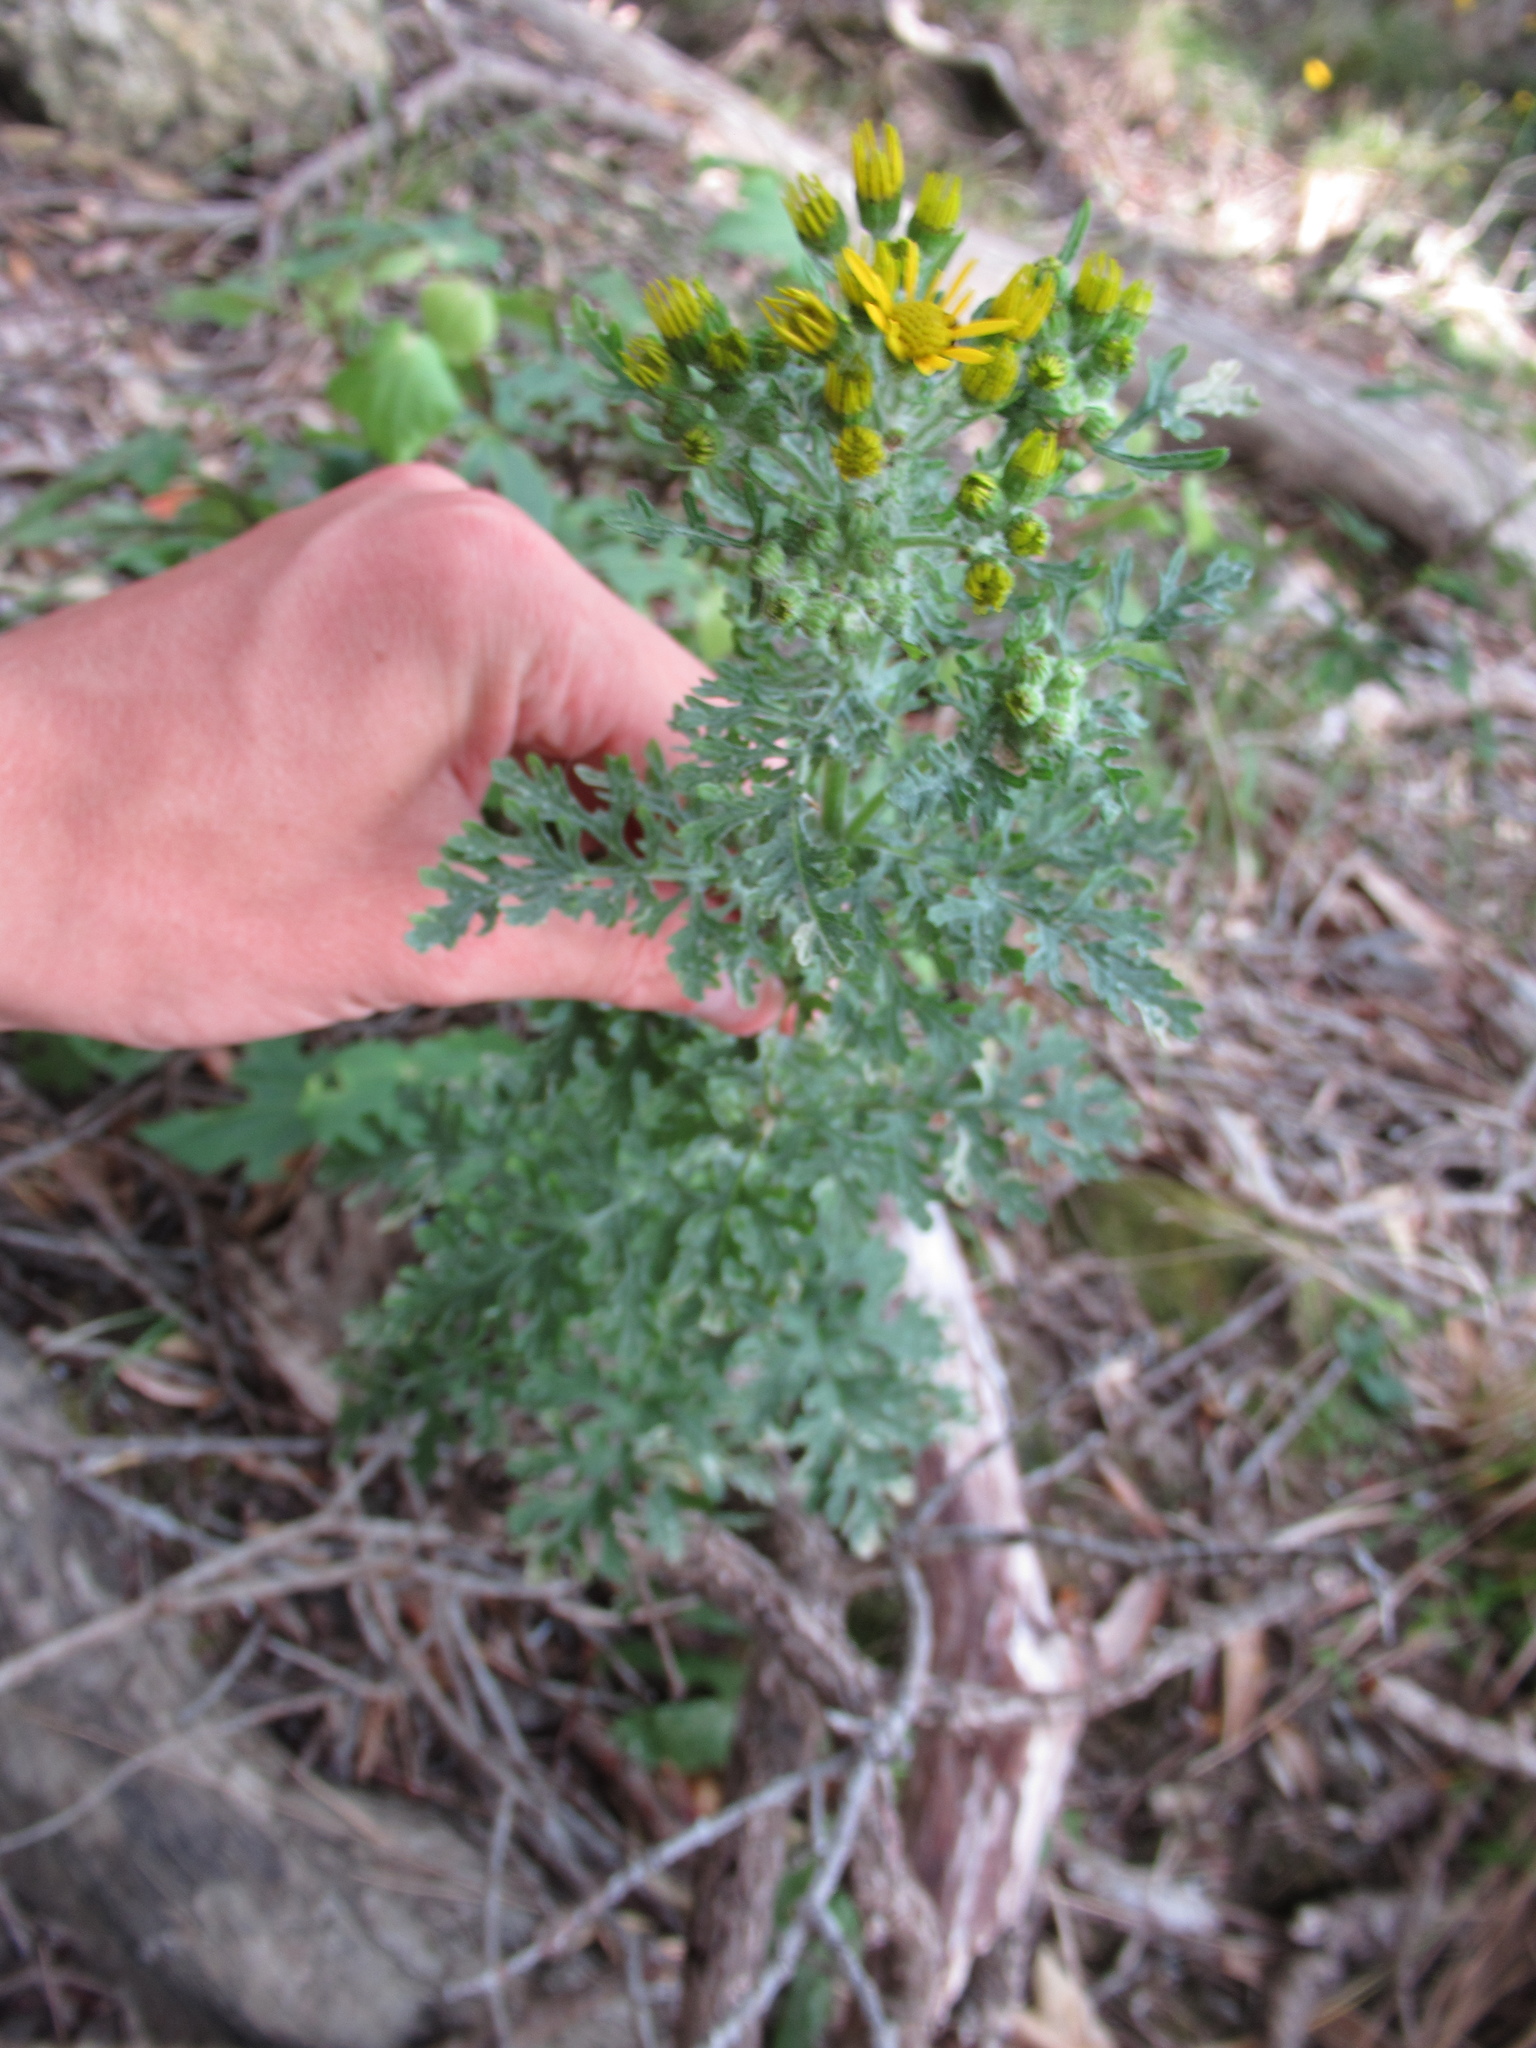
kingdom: Plantae
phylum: Tracheophyta
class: Magnoliopsida
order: Asterales
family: Asteraceae
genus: Jacobaea
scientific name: Jacobaea vulgaris
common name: Stinking willie
